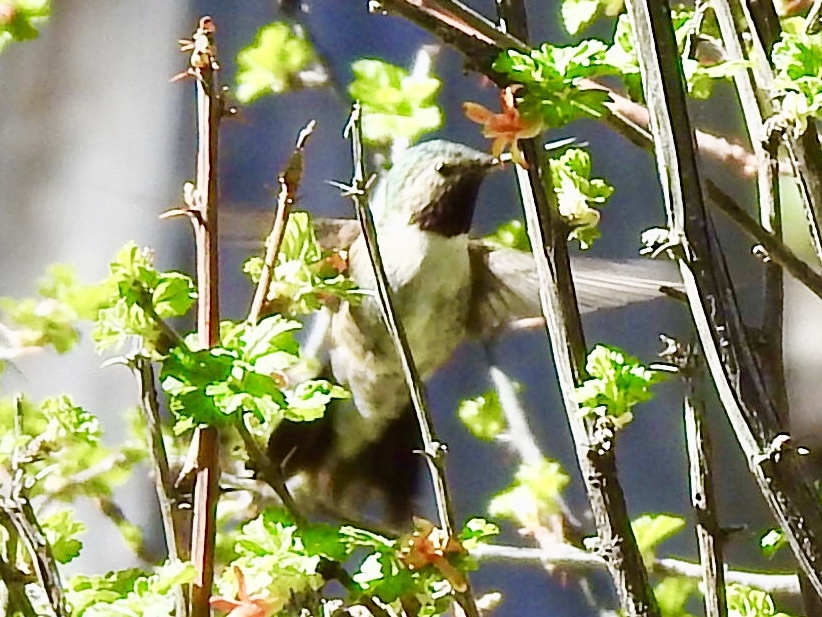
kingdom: Animalia
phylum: Chordata
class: Aves
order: Apodiformes
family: Trochilidae
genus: Selasphorus
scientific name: Selasphorus platycercus
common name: Broad-tailed hummingbird
